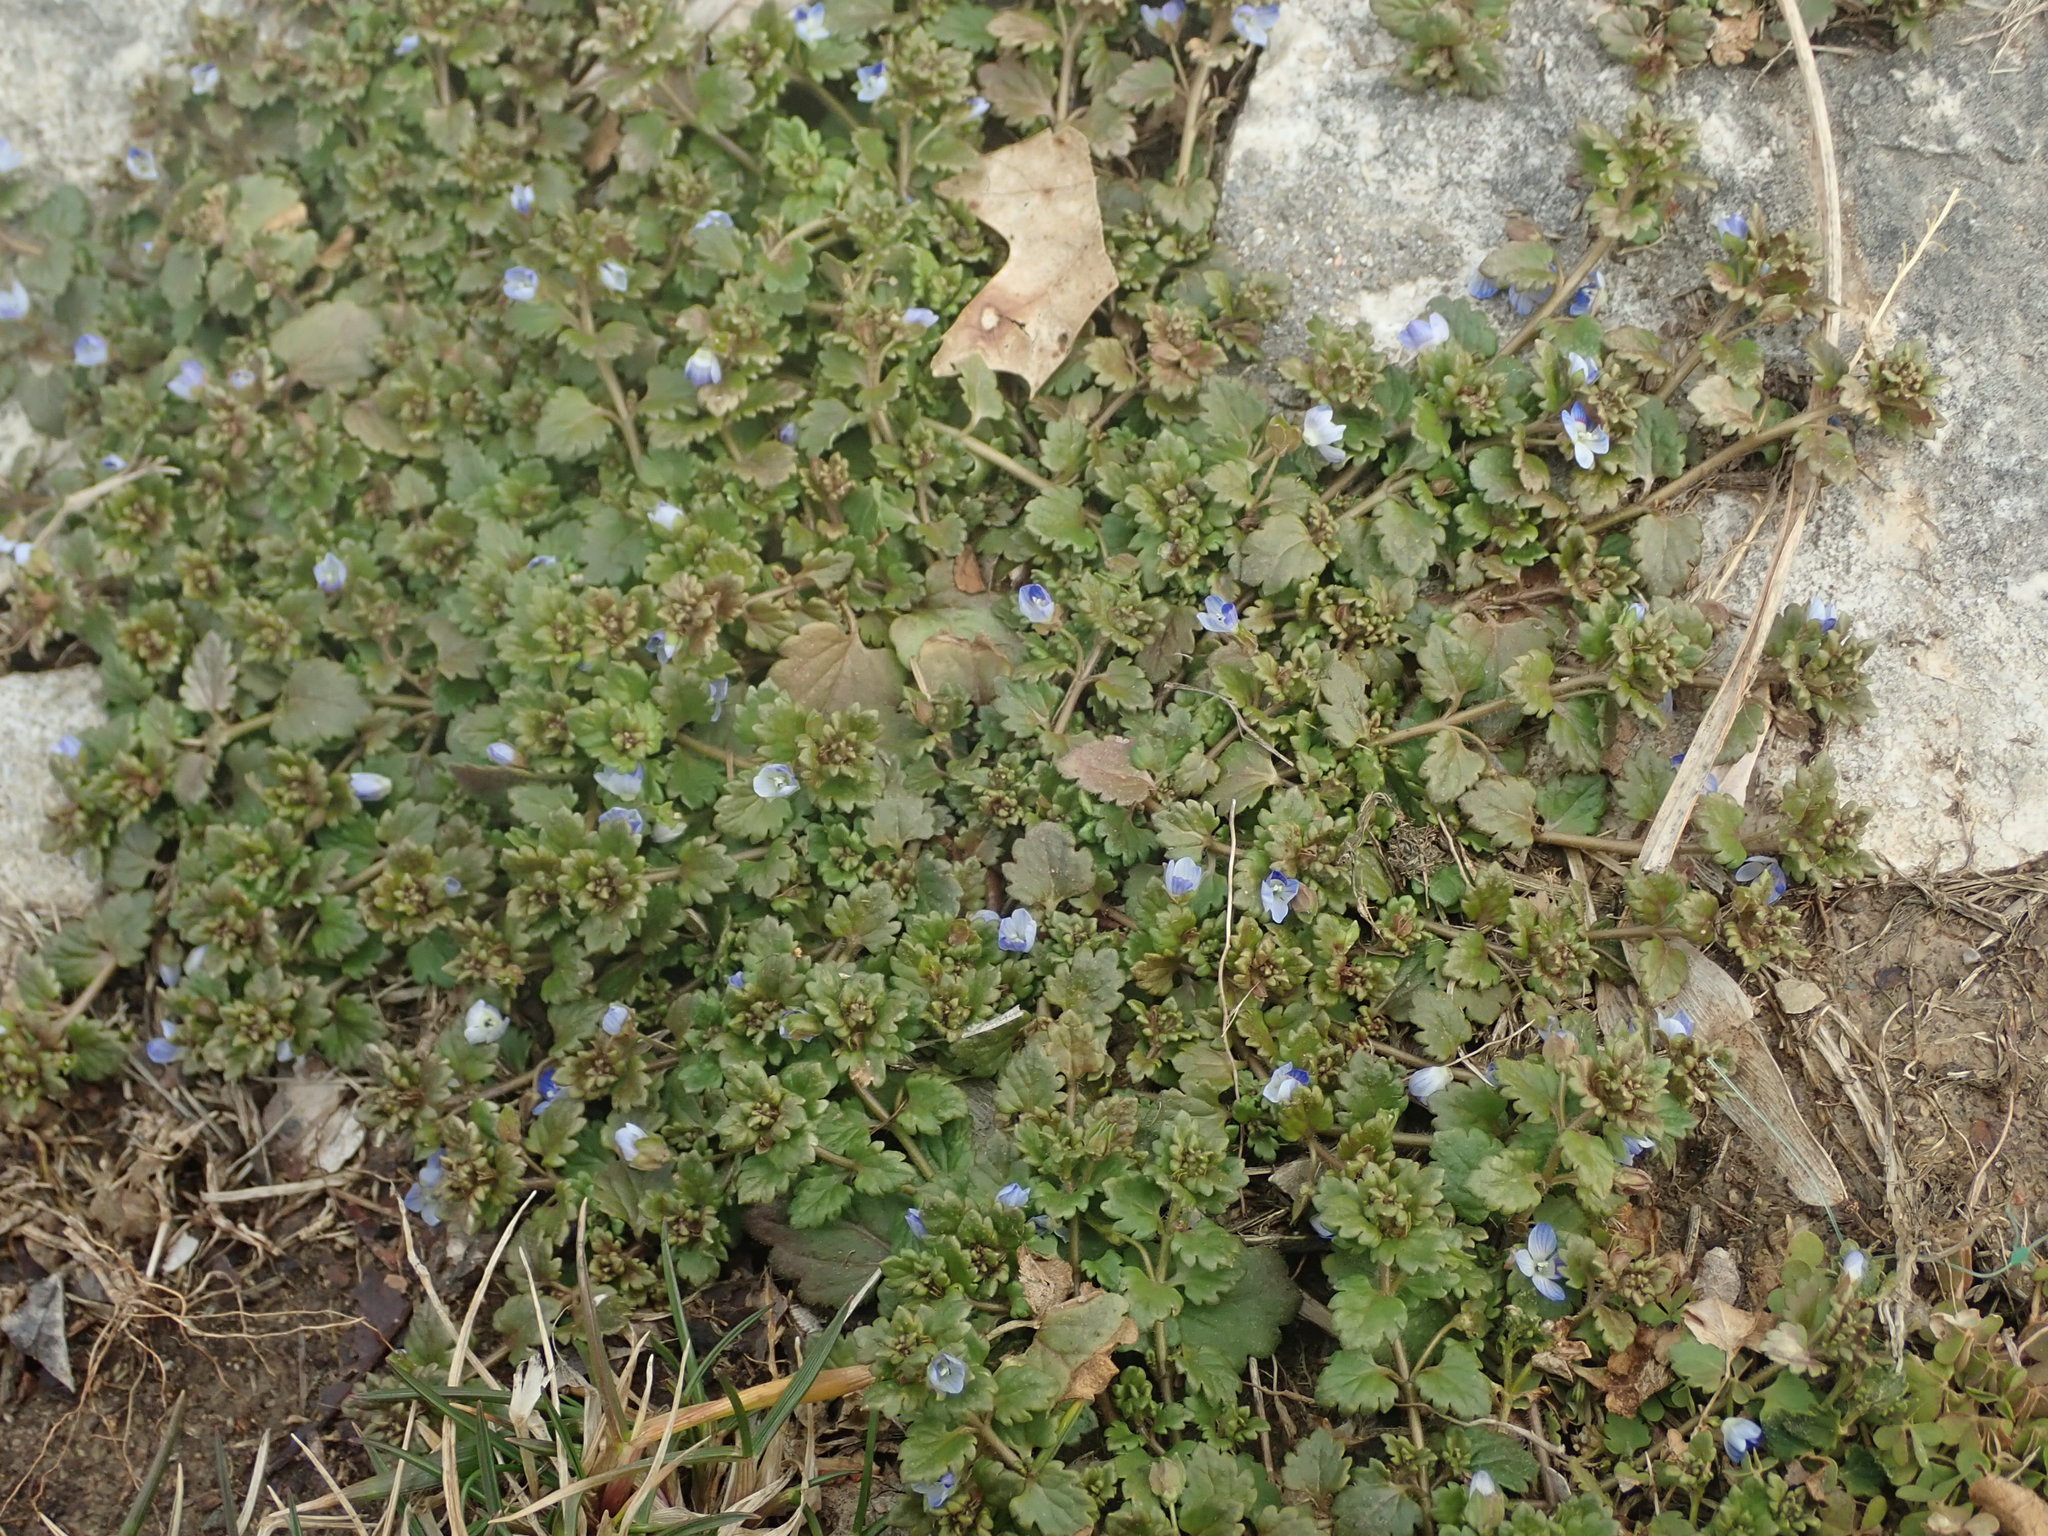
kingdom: Plantae
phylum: Tracheophyta
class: Magnoliopsida
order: Lamiales
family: Plantaginaceae
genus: Veronica
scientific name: Veronica polita
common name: Grey field-speedwell
